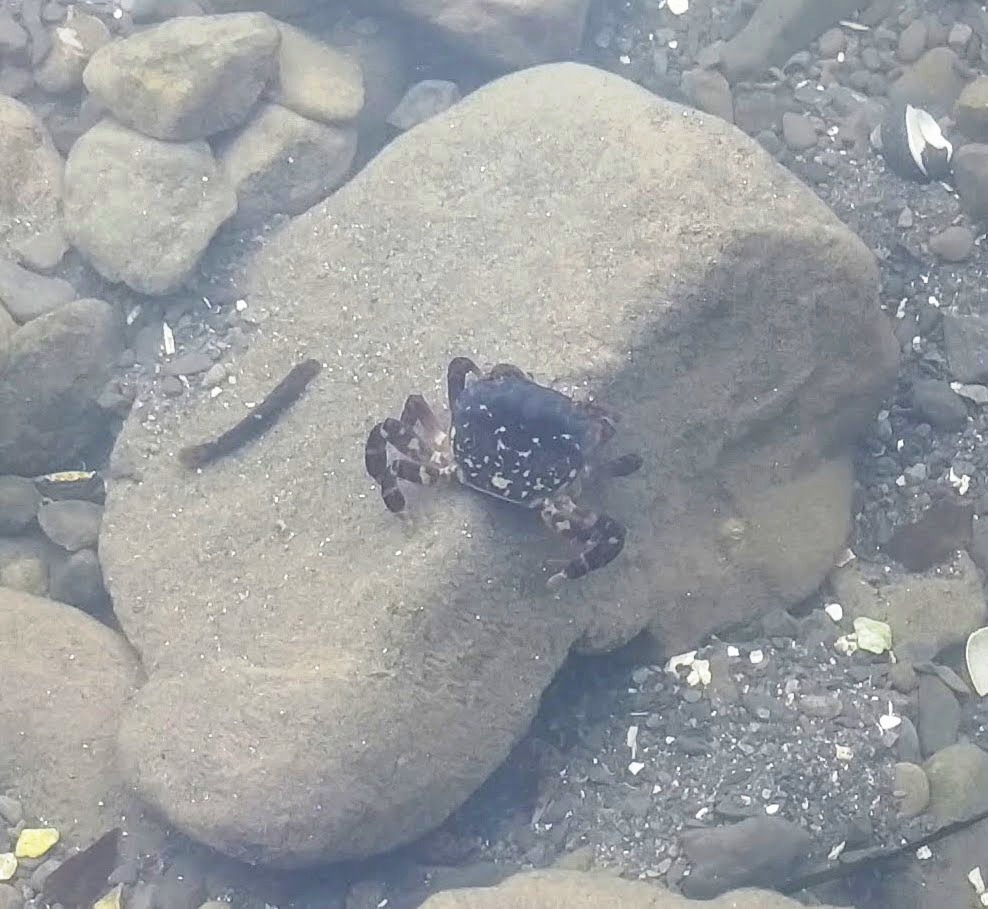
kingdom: Animalia
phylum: Arthropoda
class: Malacostraca
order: Decapoda
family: Varunidae
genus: Hemigrapsus
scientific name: Hemigrapsus nudus
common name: Purple shore crab
